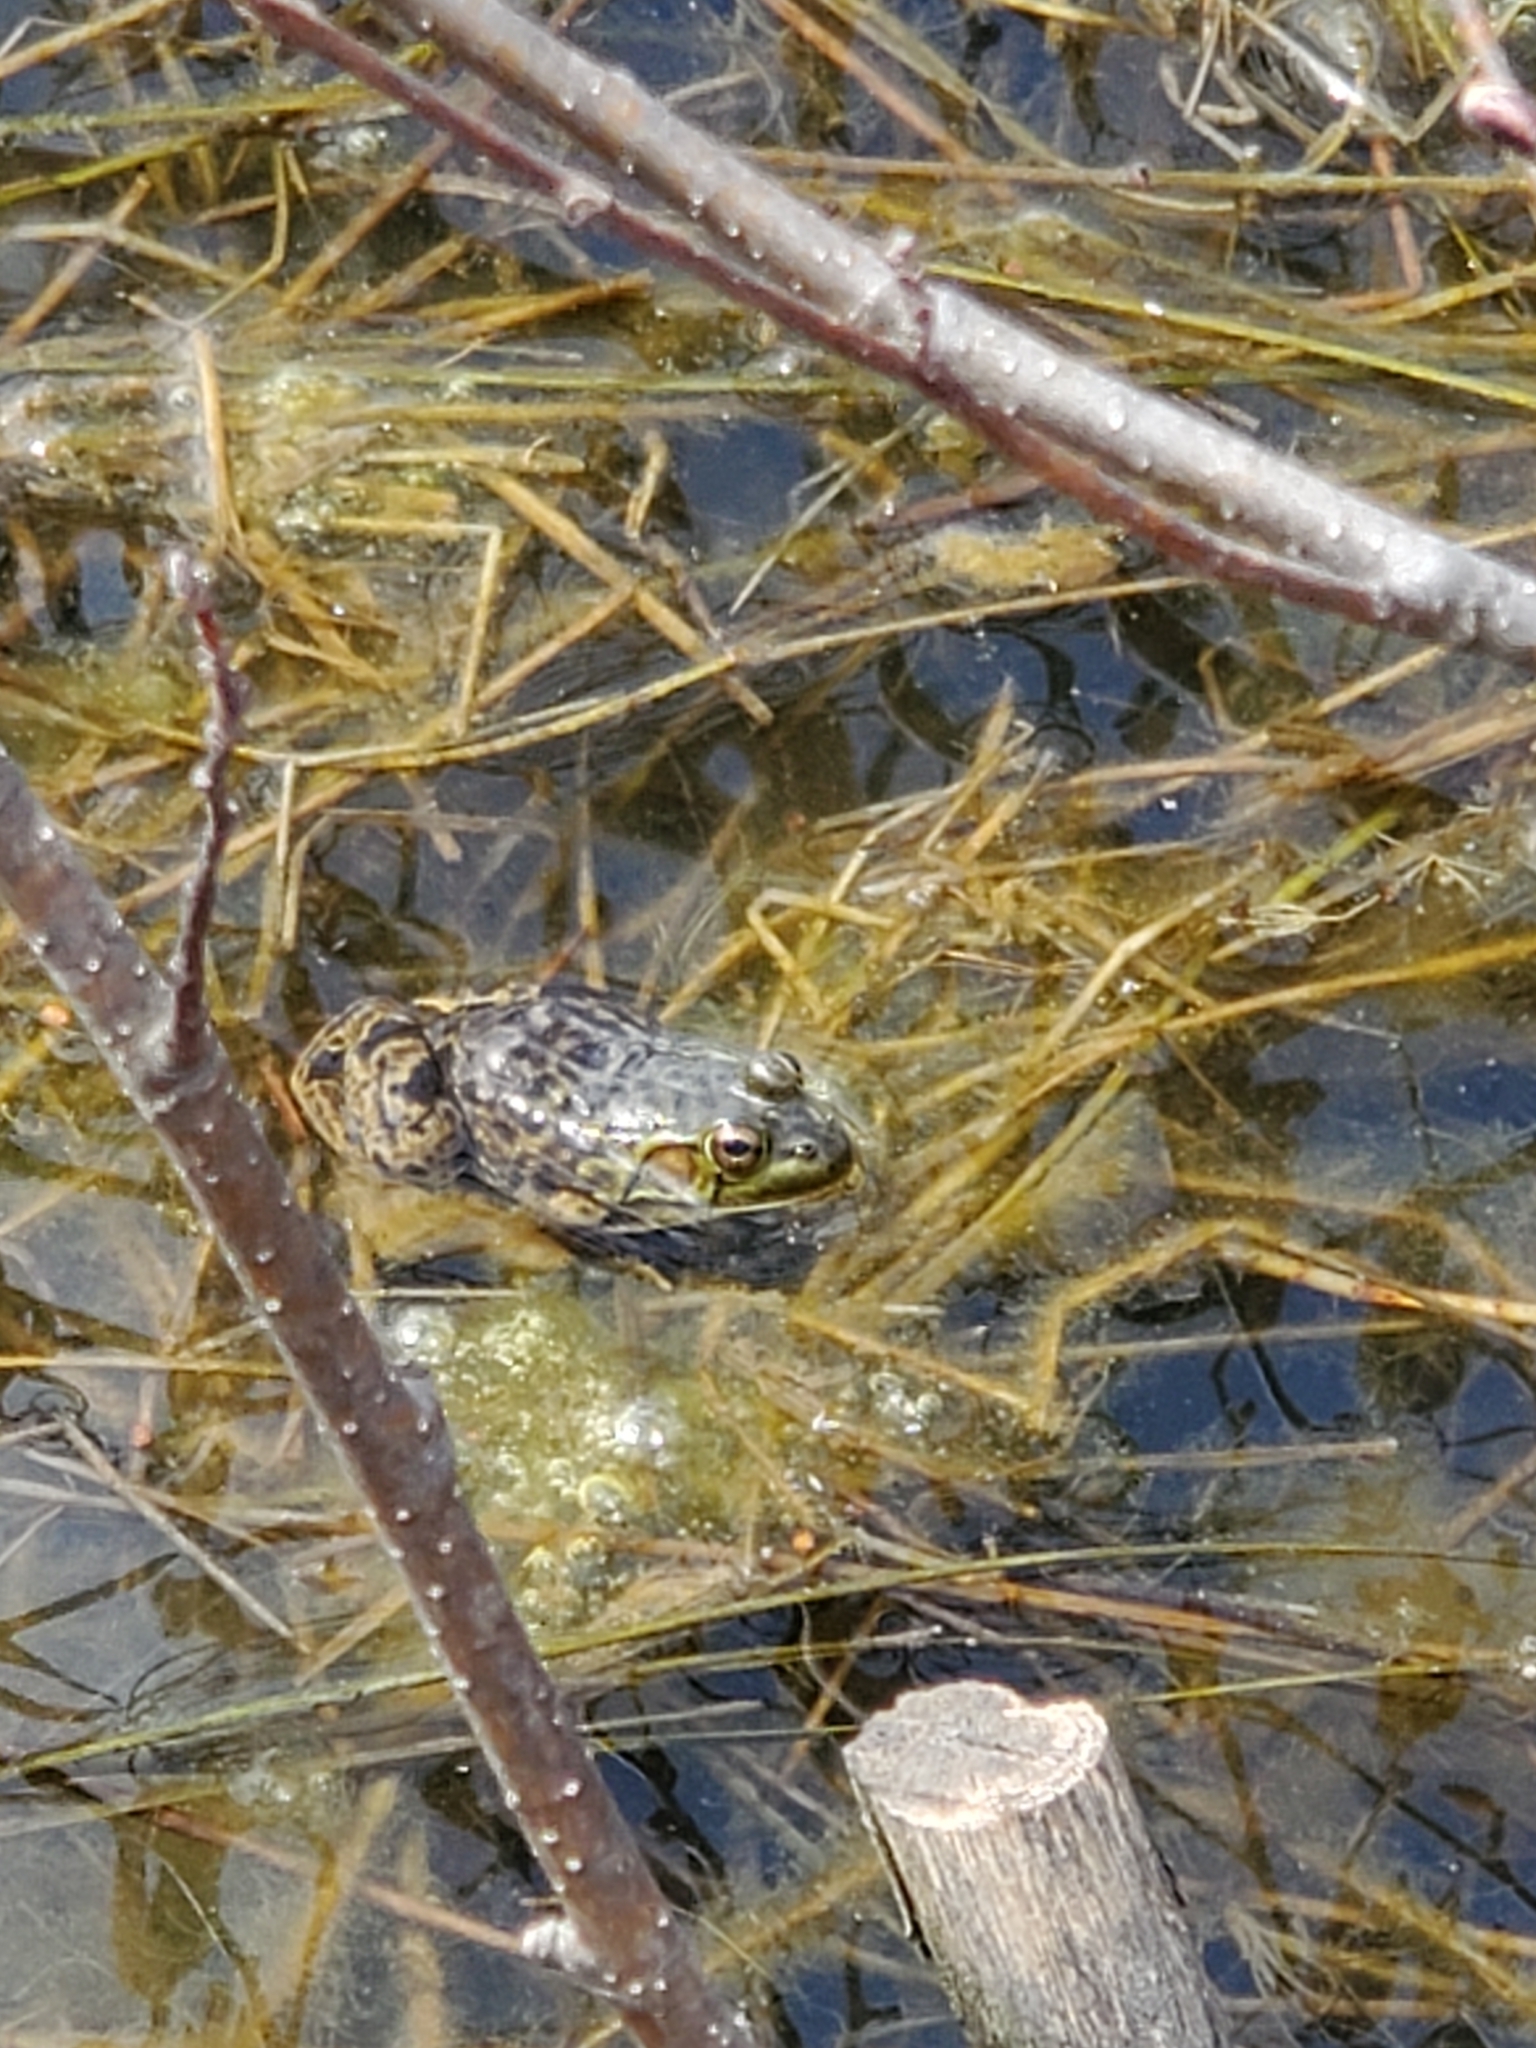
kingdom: Animalia
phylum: Chordata
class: Amphibia
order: Anura
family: Ranidae
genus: Lithobates
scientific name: Lithobates septentrionalis
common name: Mink frog
